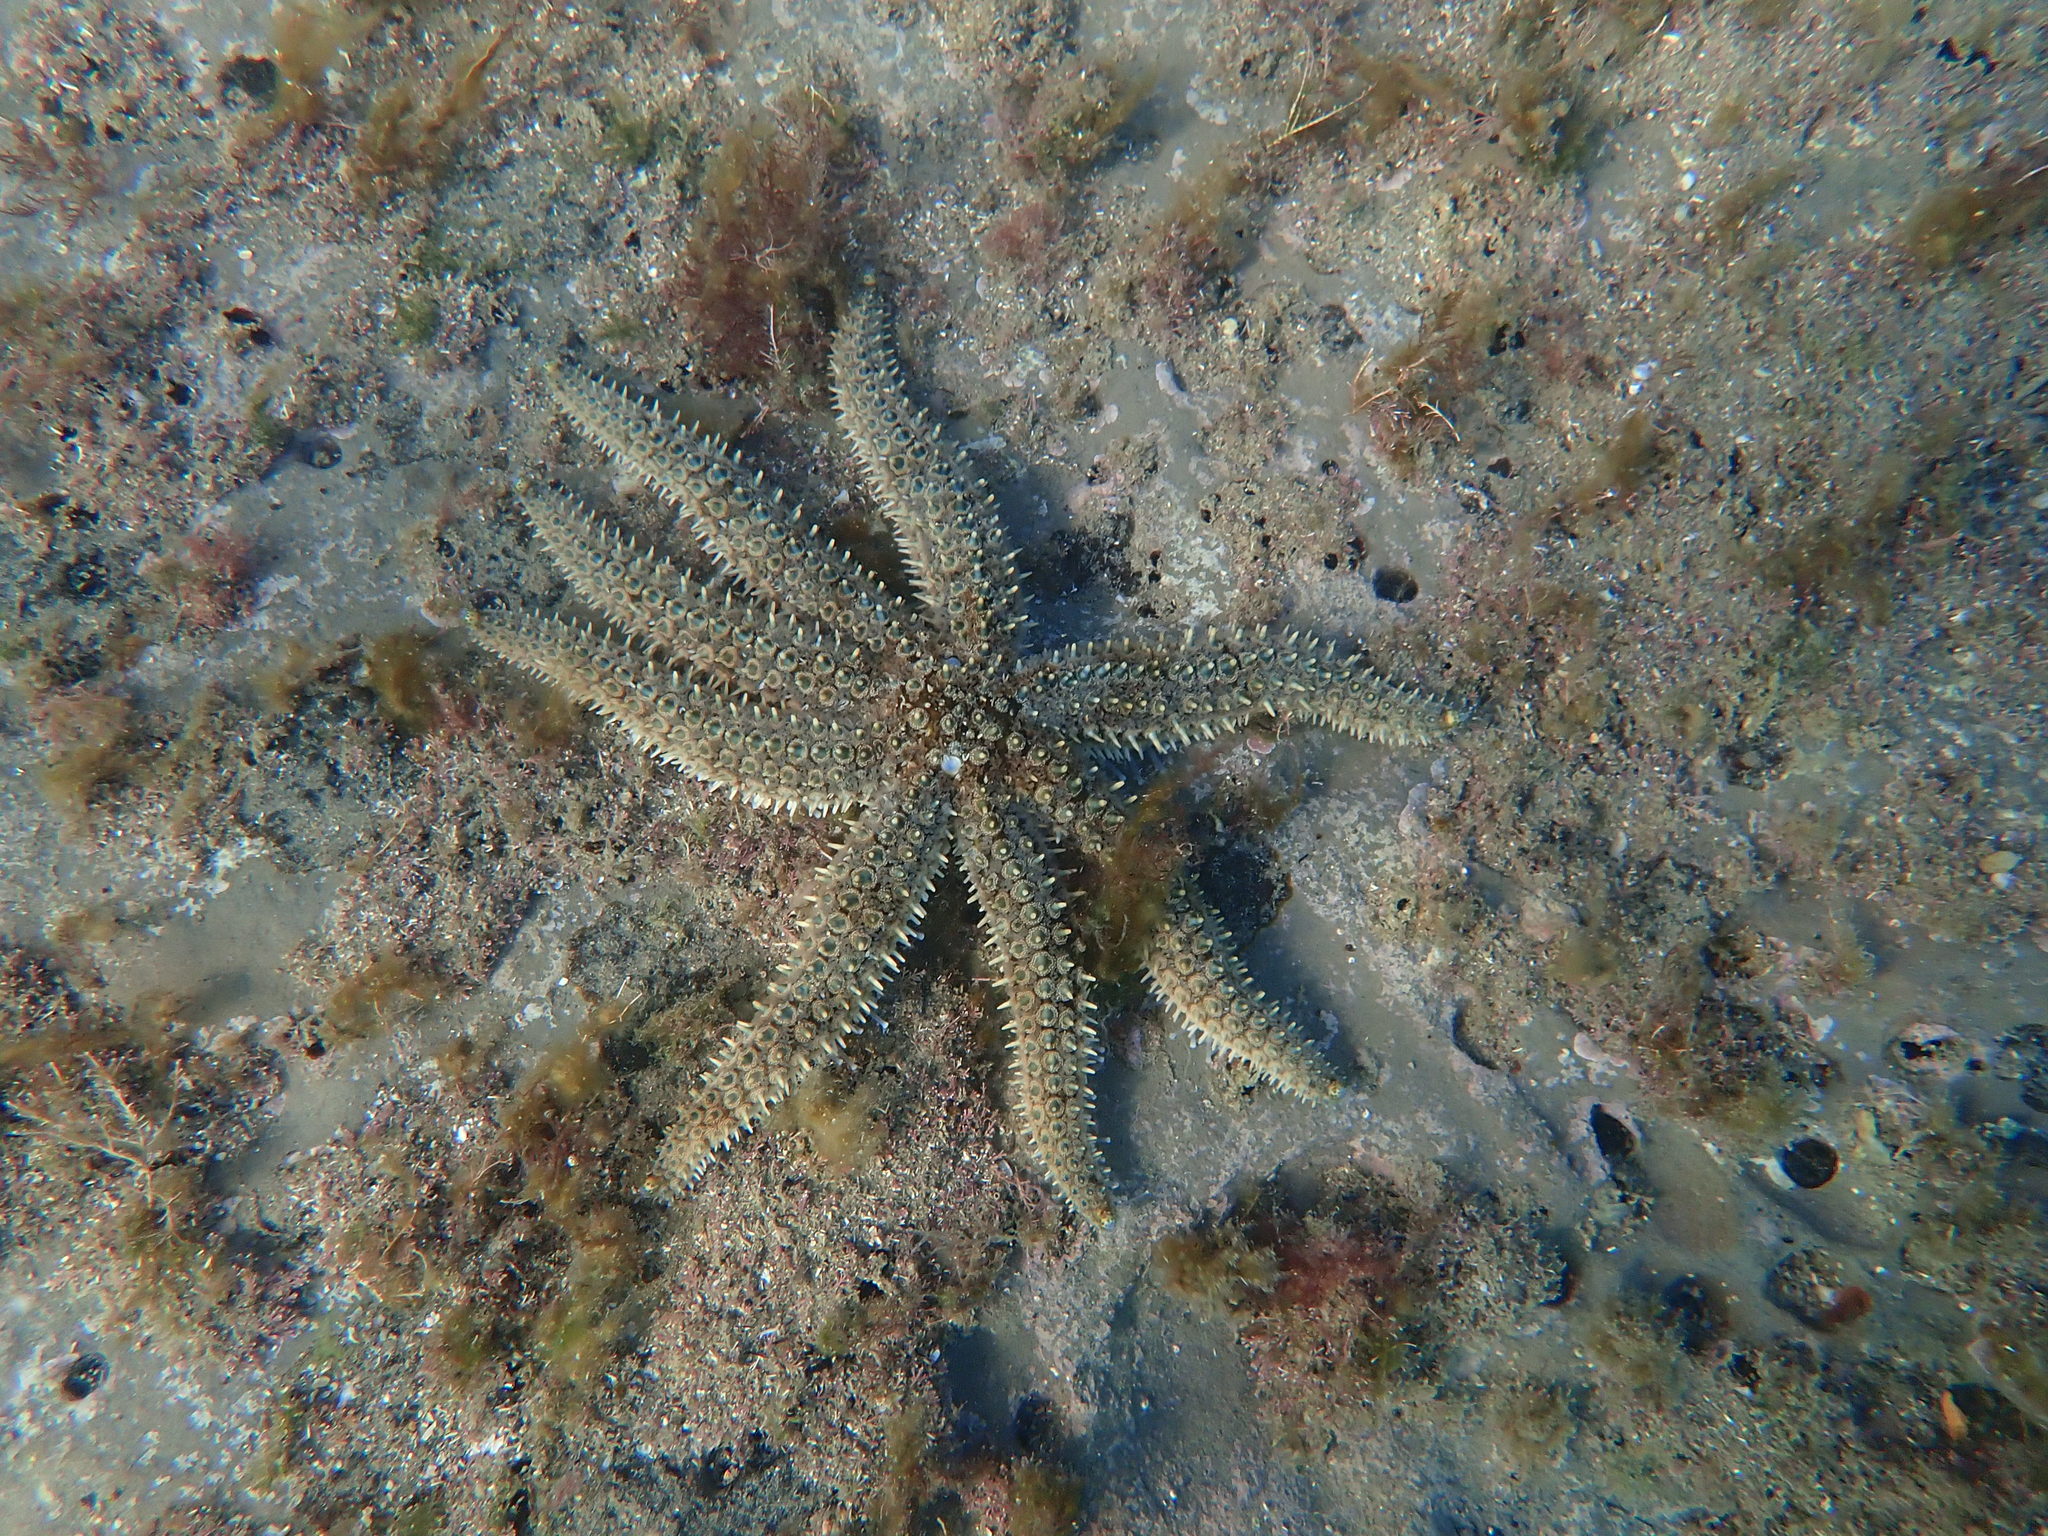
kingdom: Animalia
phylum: Echinodermata
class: Asteroidea
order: Forcipulatida
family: Asteriidae
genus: Coscinasterias
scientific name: Coscinasterias muricata
